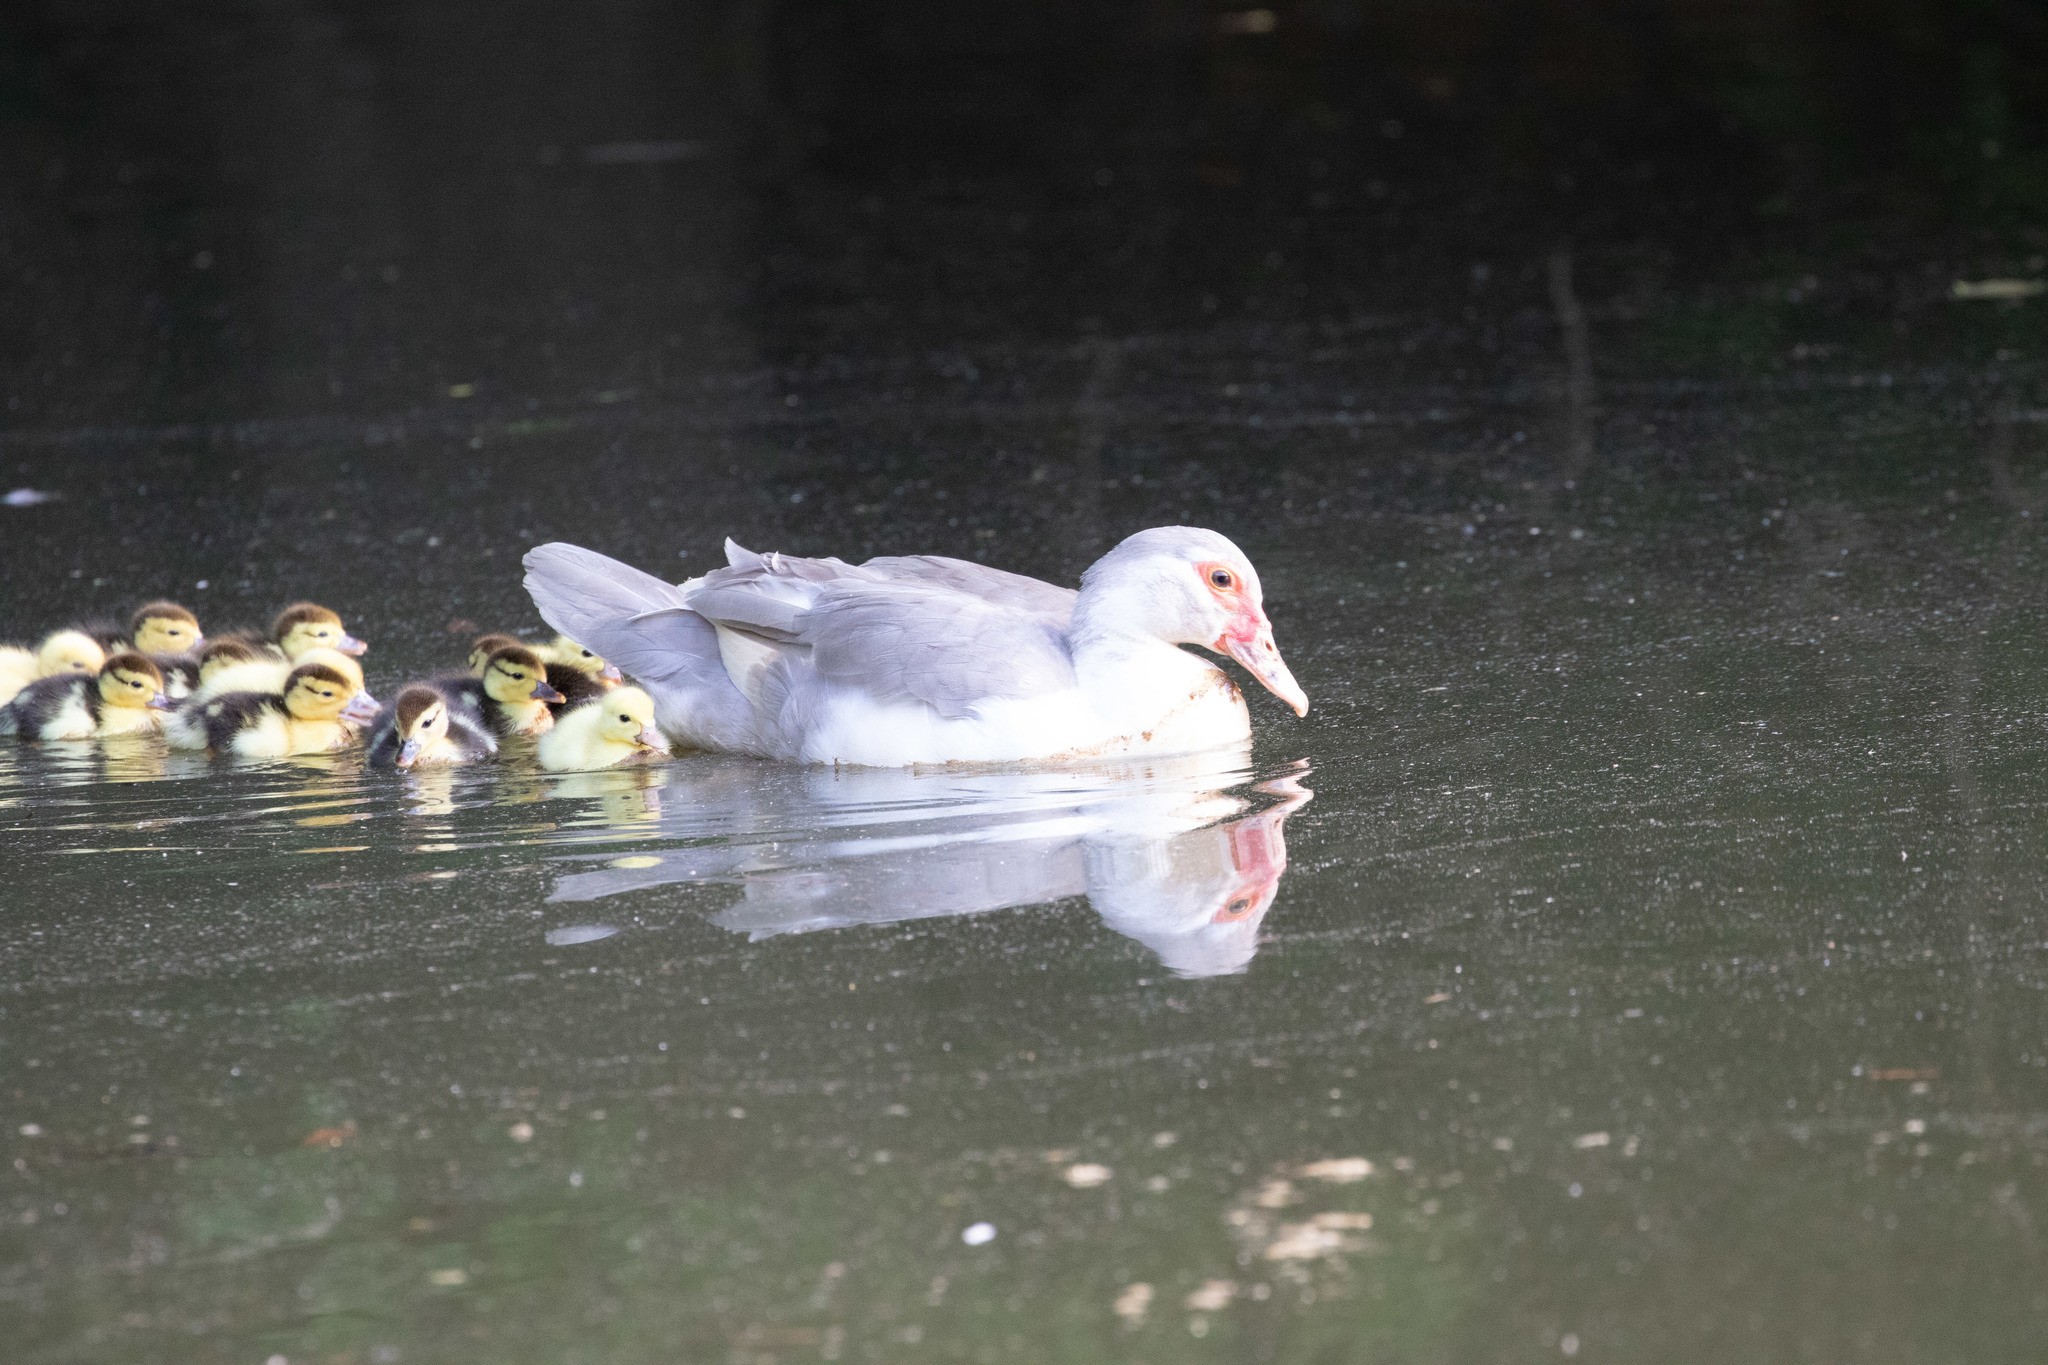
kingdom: Animalia
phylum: Chordata
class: Aves
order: Anseriformes
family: Anatidae
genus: Cairina
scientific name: Cairina moschata
